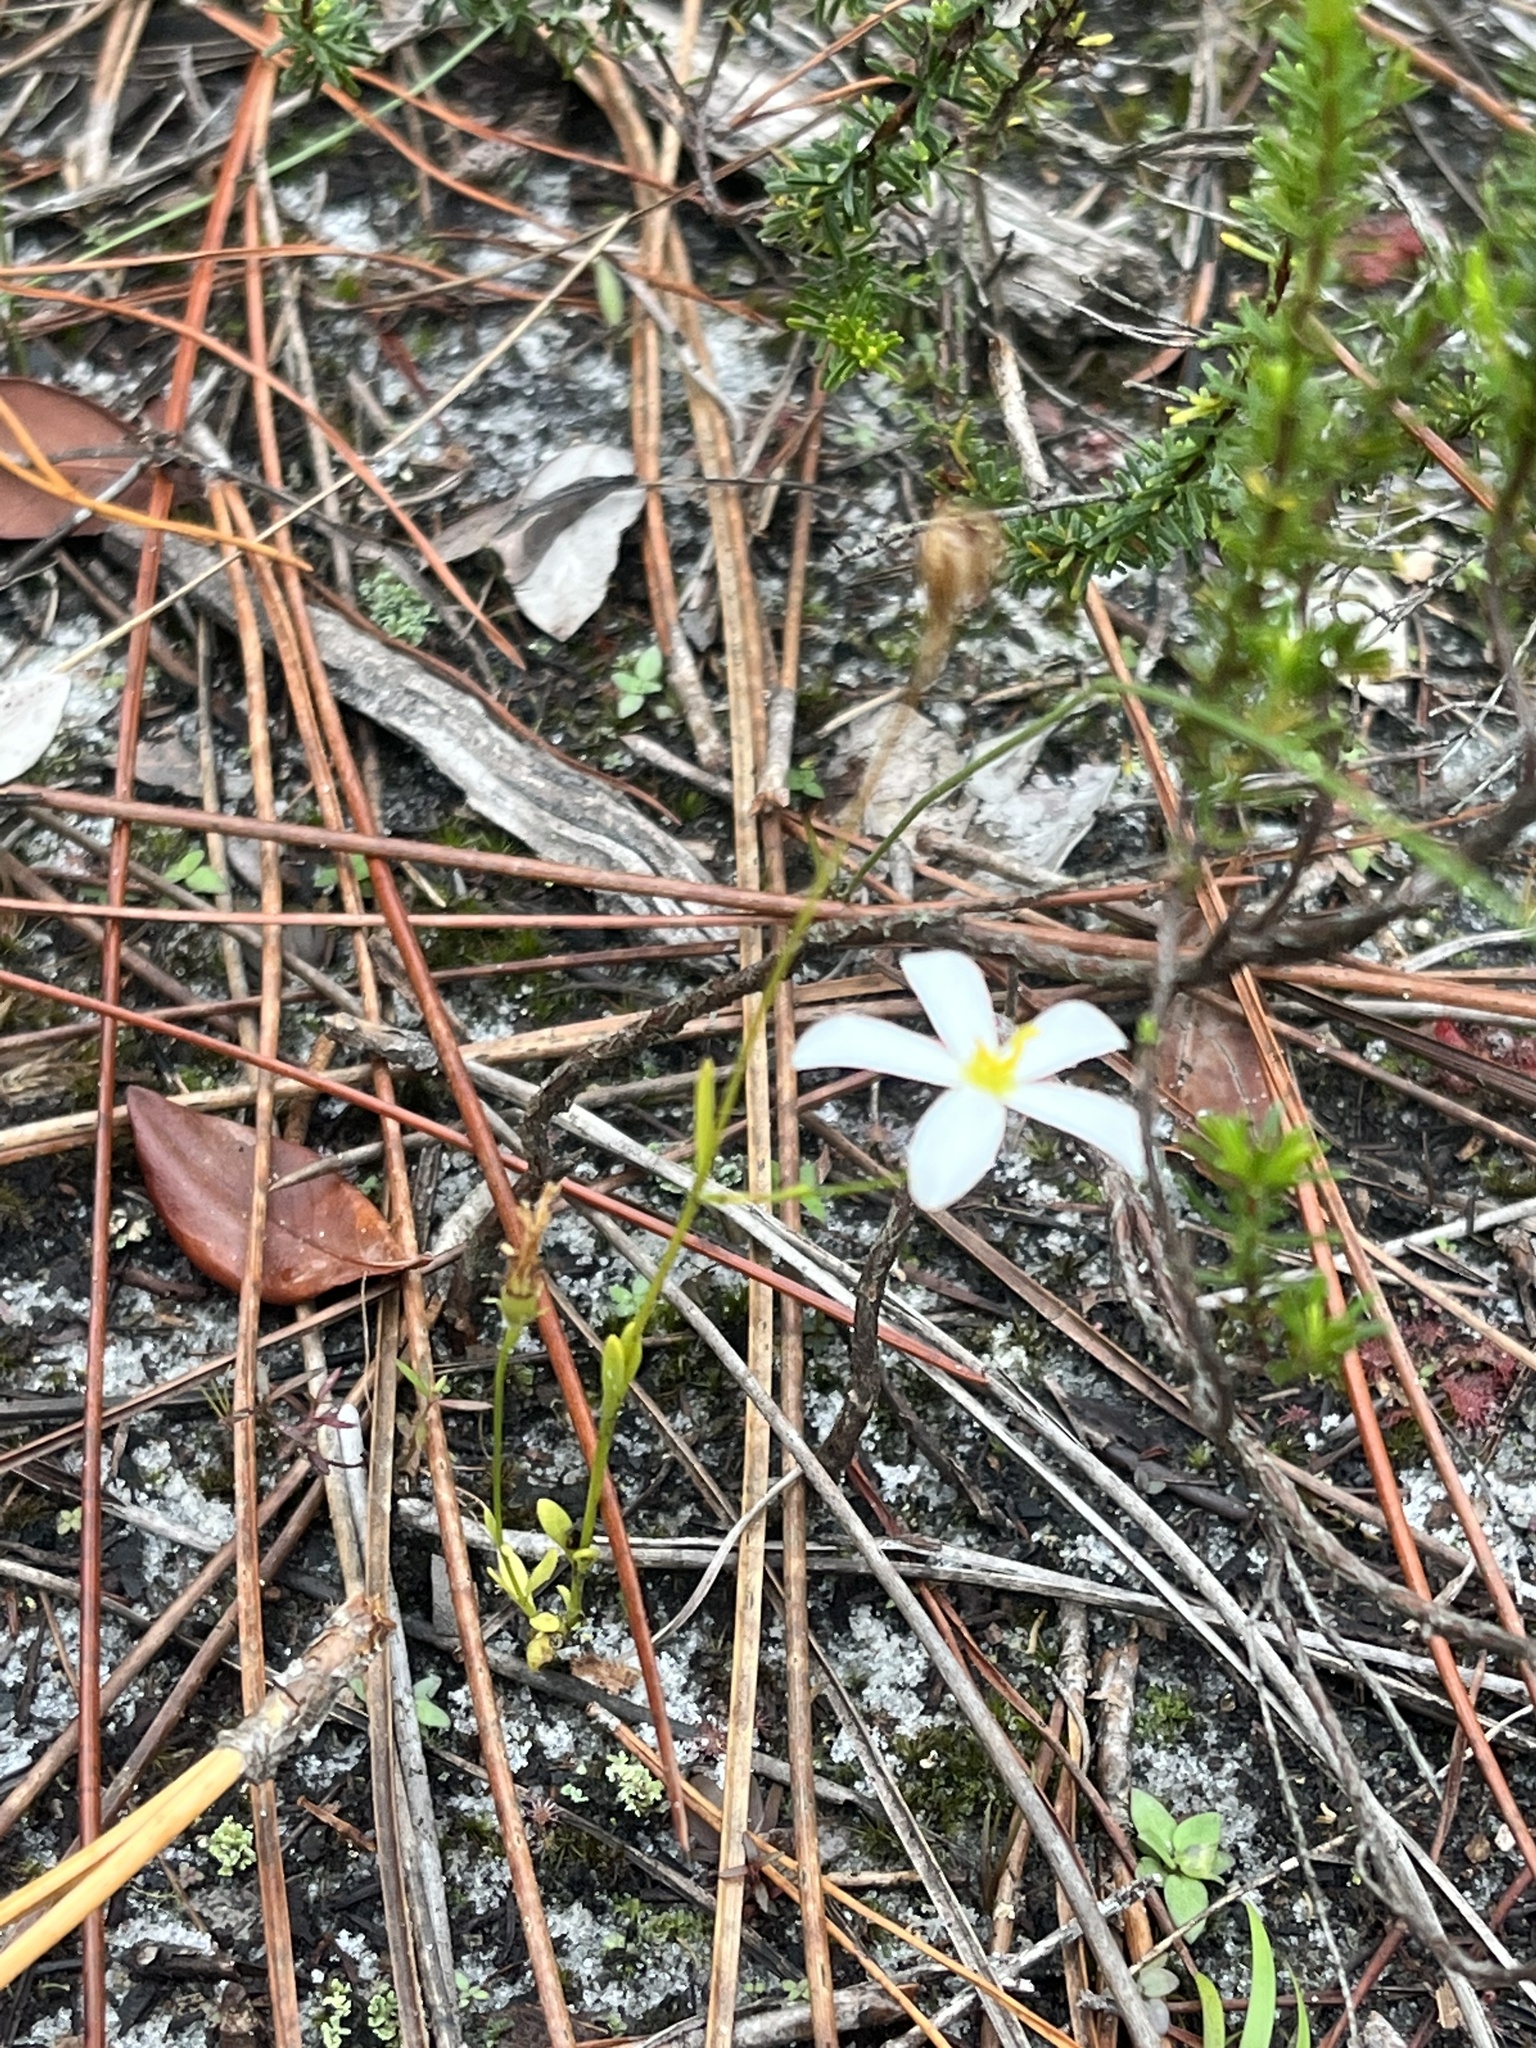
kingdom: Plantae
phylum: Tracheophyta
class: Magnoliopsida
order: Gentianales
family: Gentianaceae
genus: Sabatia
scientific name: Sabatia brevifolia
